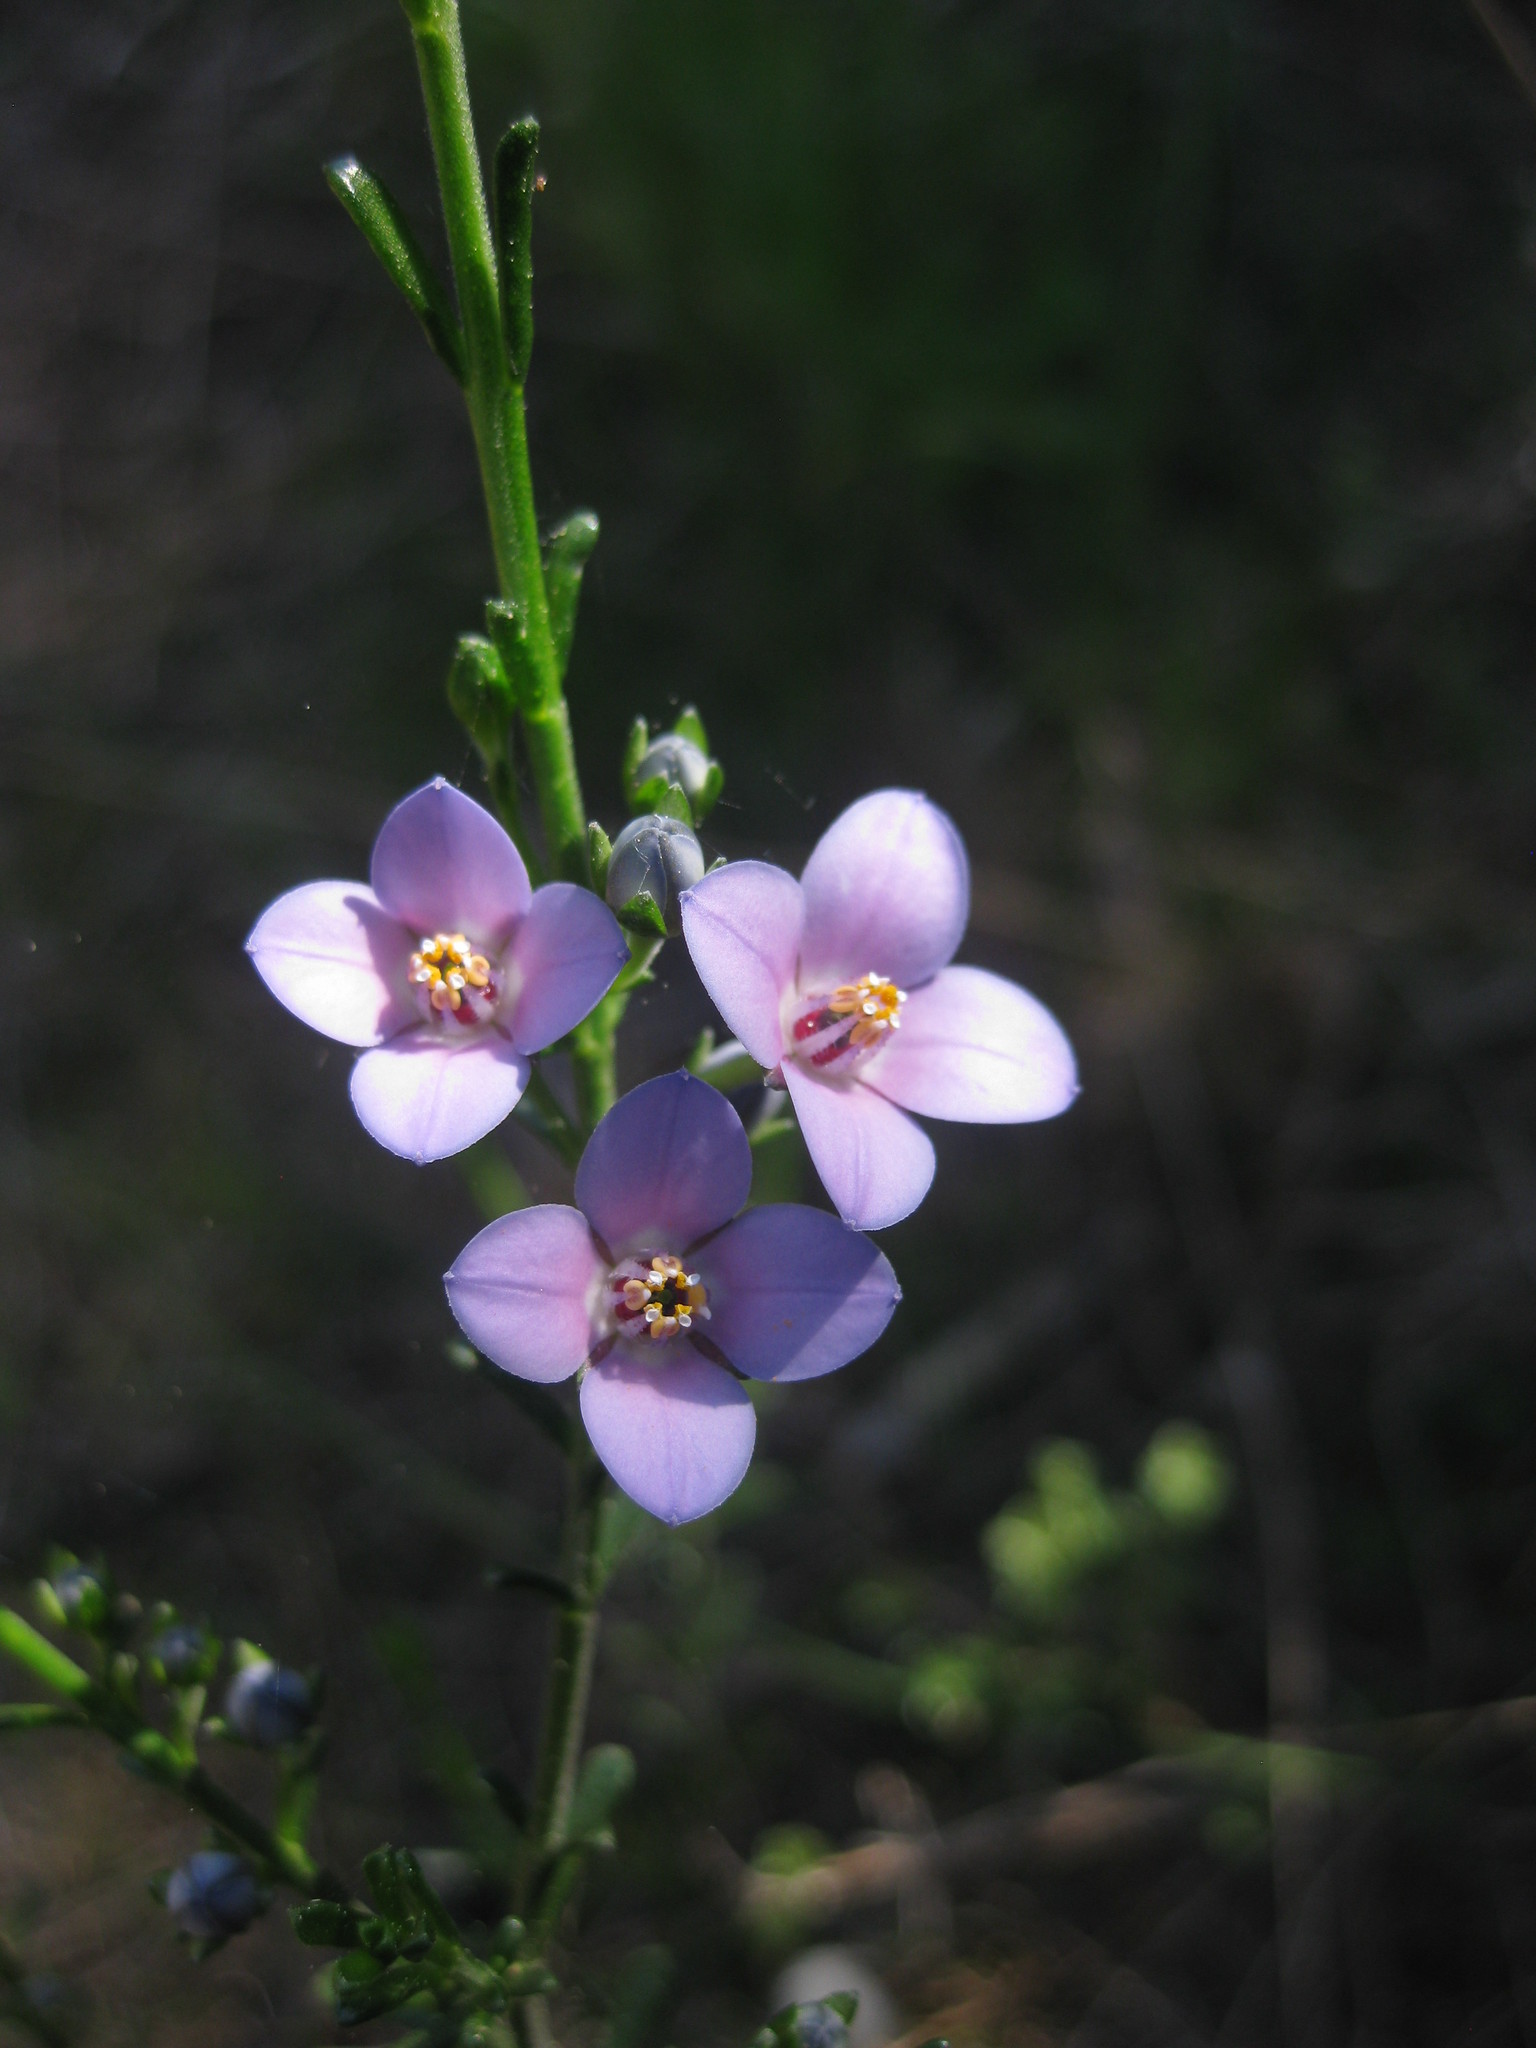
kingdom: Plantae
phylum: Tracheophyta
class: Magnoliopsida
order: Sapindales
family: Rutaceae
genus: Cyanothamnus
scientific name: Cyanothamnus coerulescens
